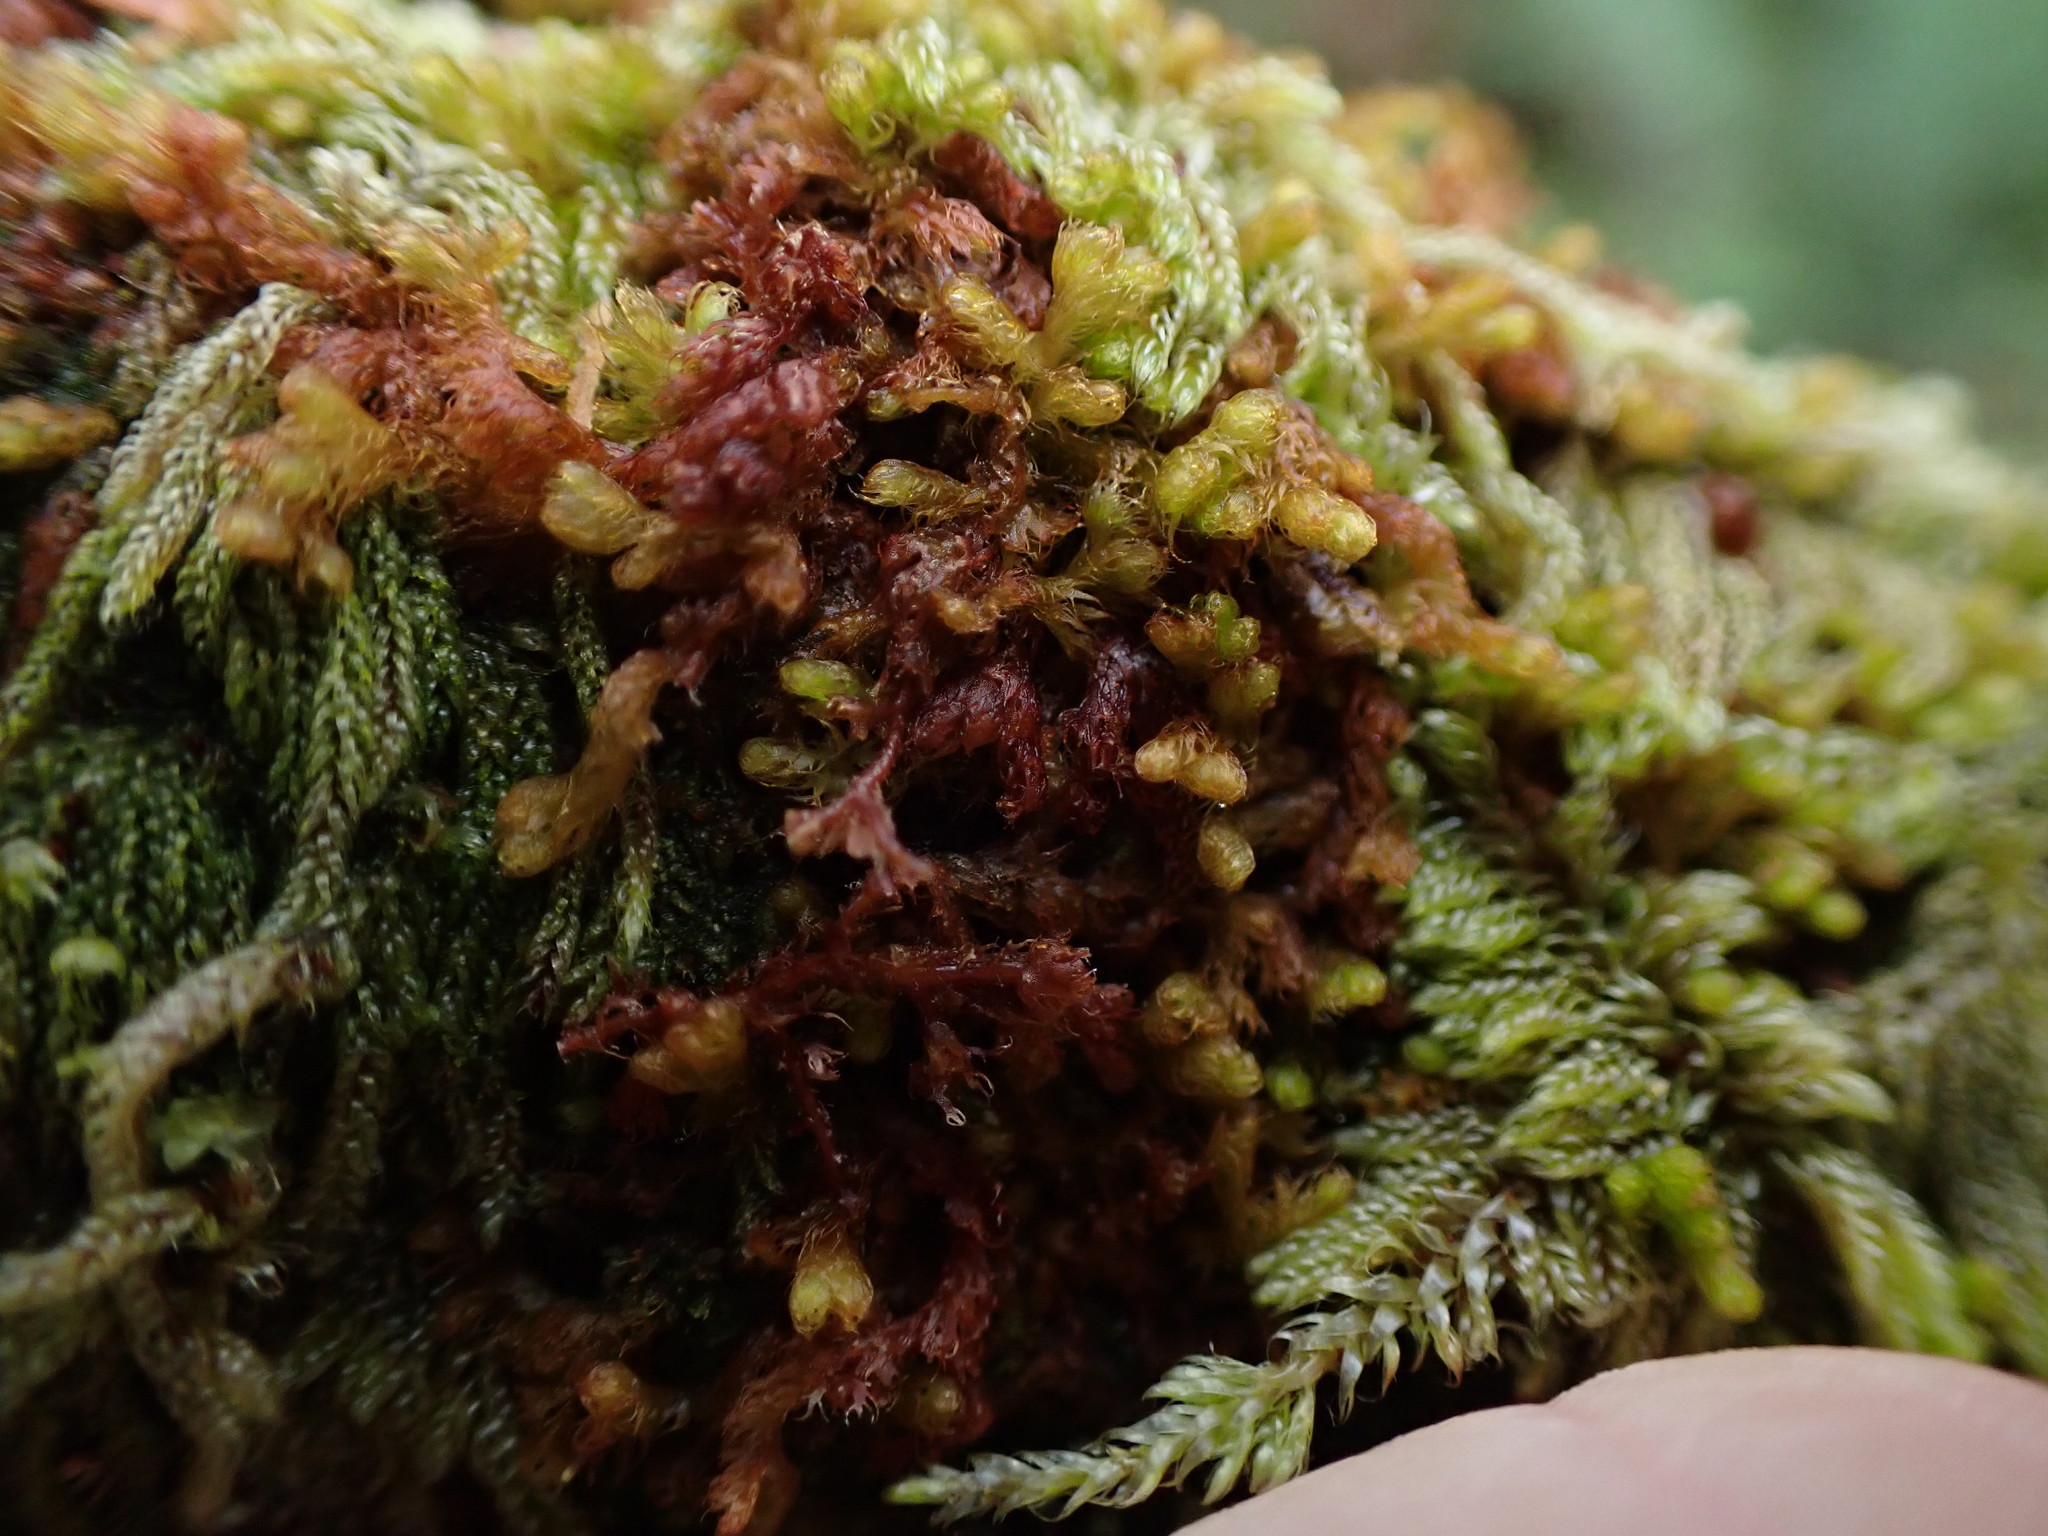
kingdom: Plantae
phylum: Marchantiophyta
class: Jungermanniopsida
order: Ptilidiales
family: Ptilidiaceae
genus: Ptilidium
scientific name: Ptilidium californicum
